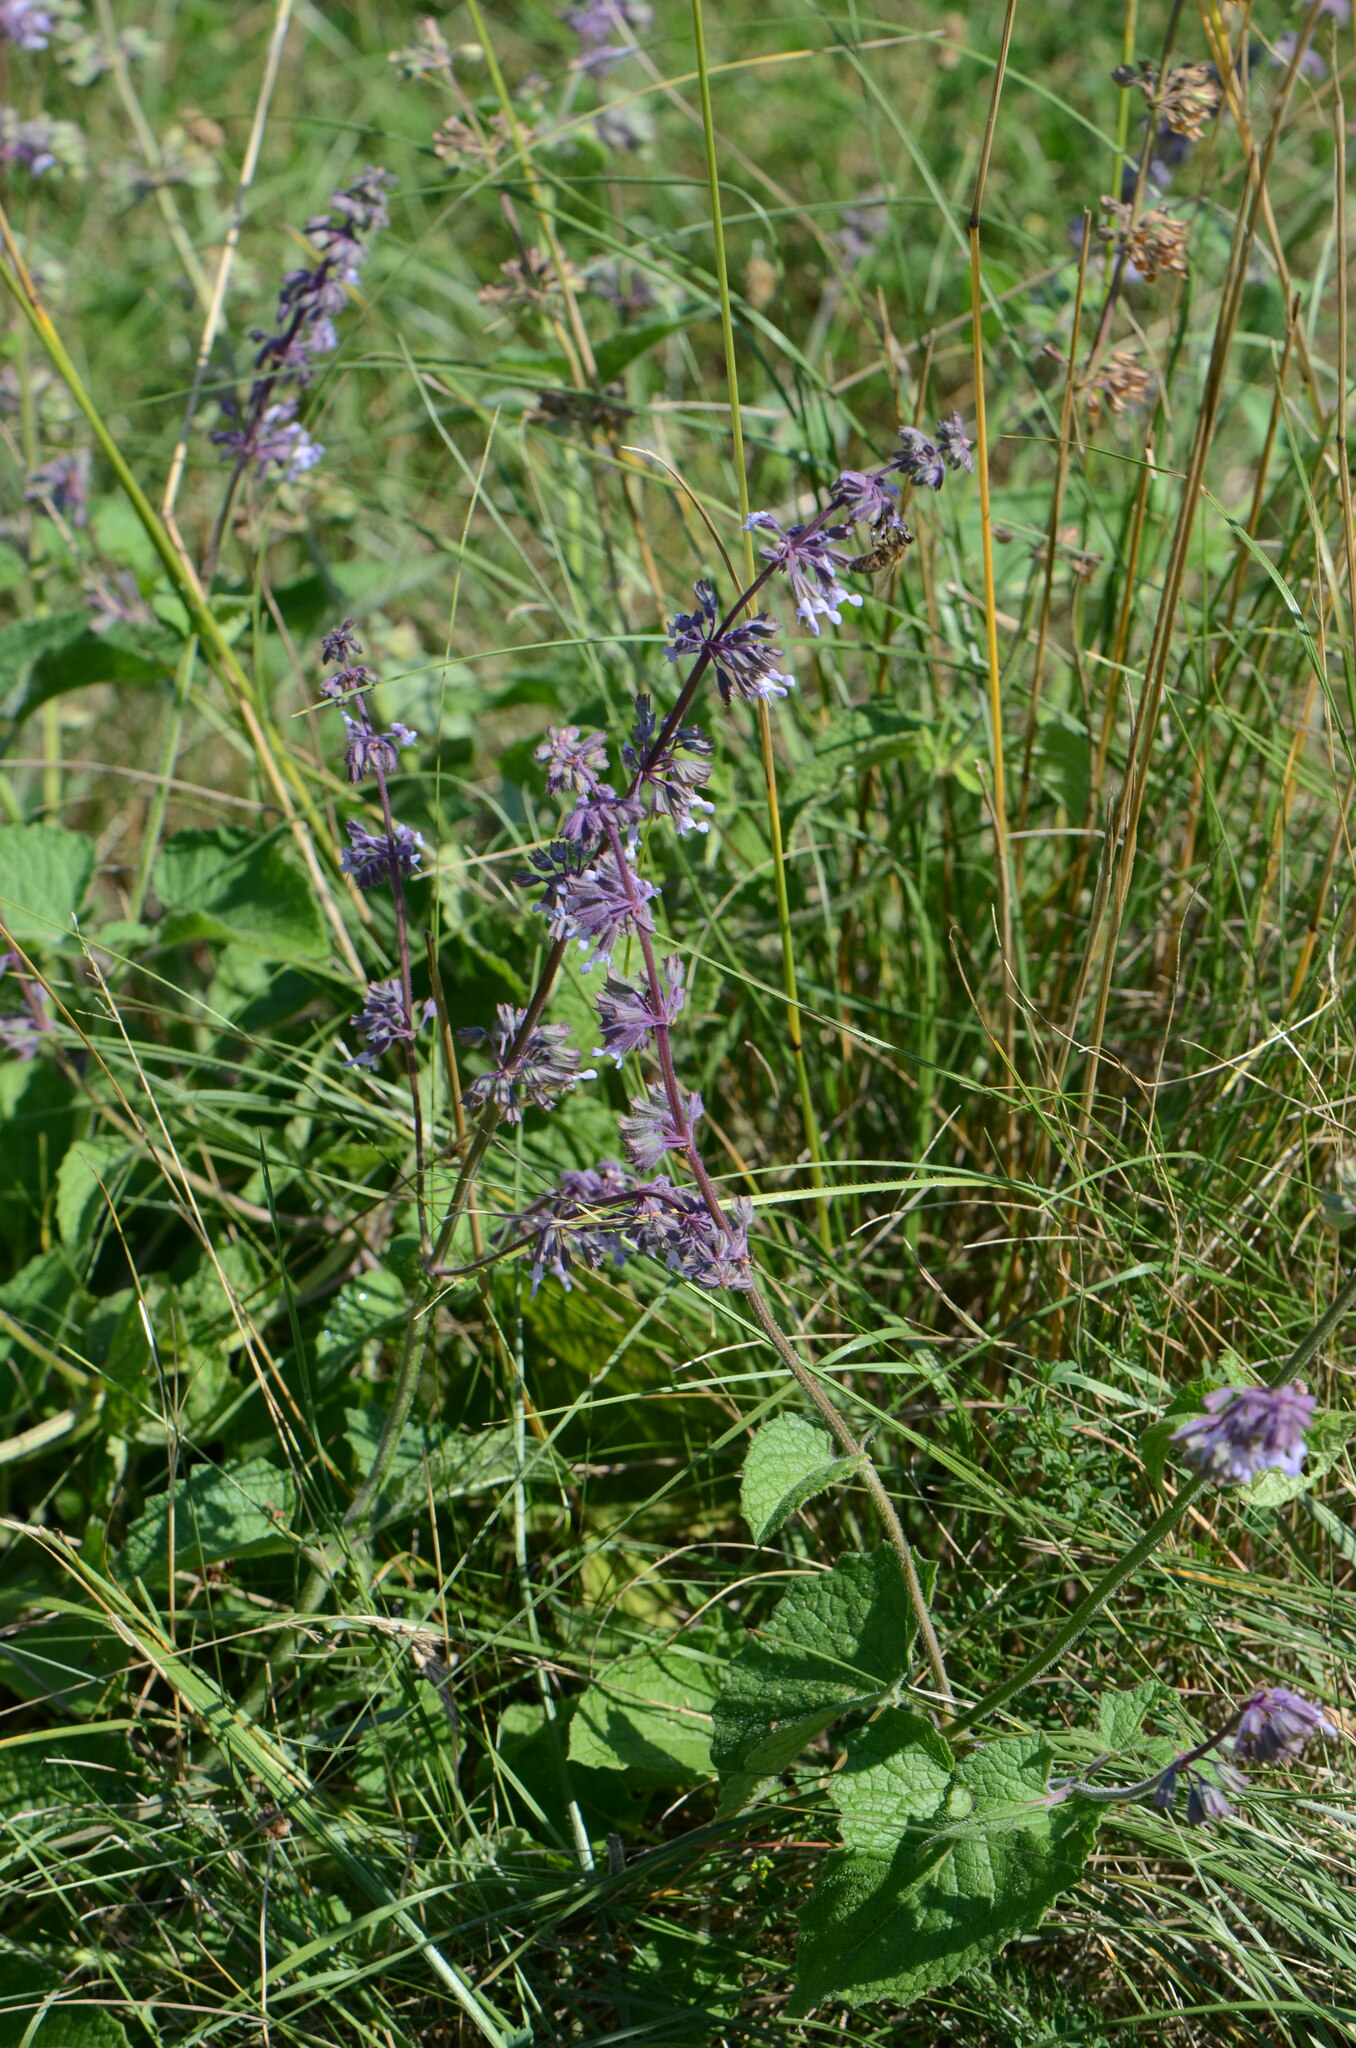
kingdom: Plantae
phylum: Tracheophyta
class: Magnoliopsida
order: Lamiales
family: Lamiaceae
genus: Salvia
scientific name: Salvia verticillata
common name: Whorled clary
